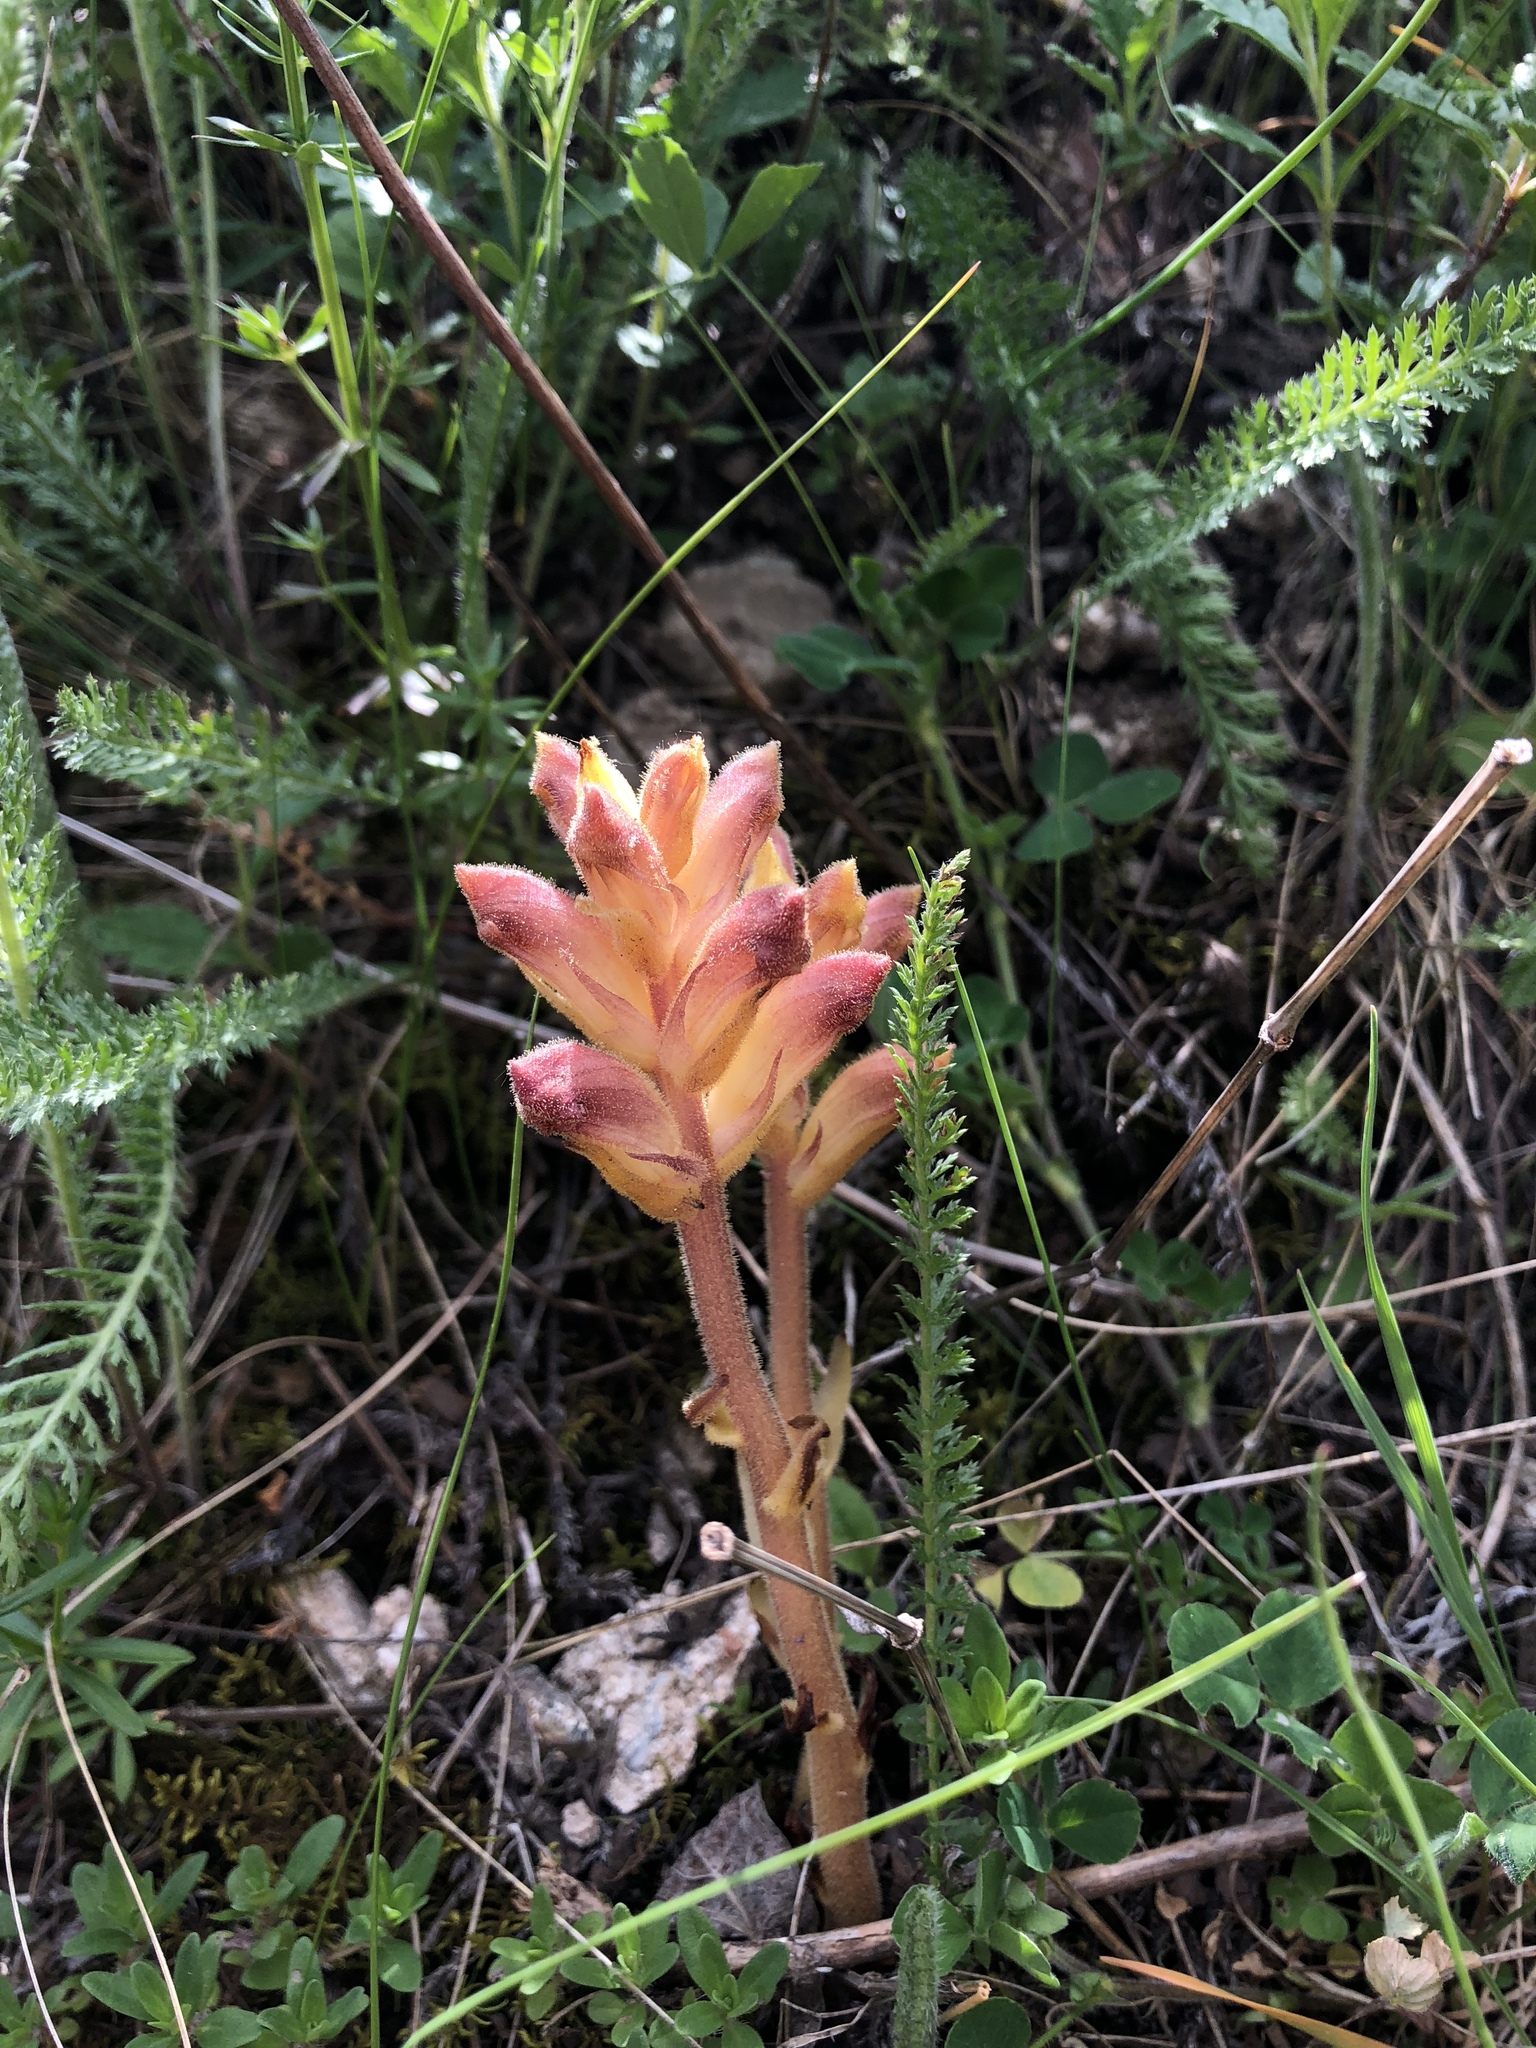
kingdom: Plantae
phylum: Tracheophyta
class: Magnoliopsida
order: Lamiales
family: Orobanchaceae
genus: Orobanche
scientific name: Orobanche caryophyllacea
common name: Bedstraw broomrape
